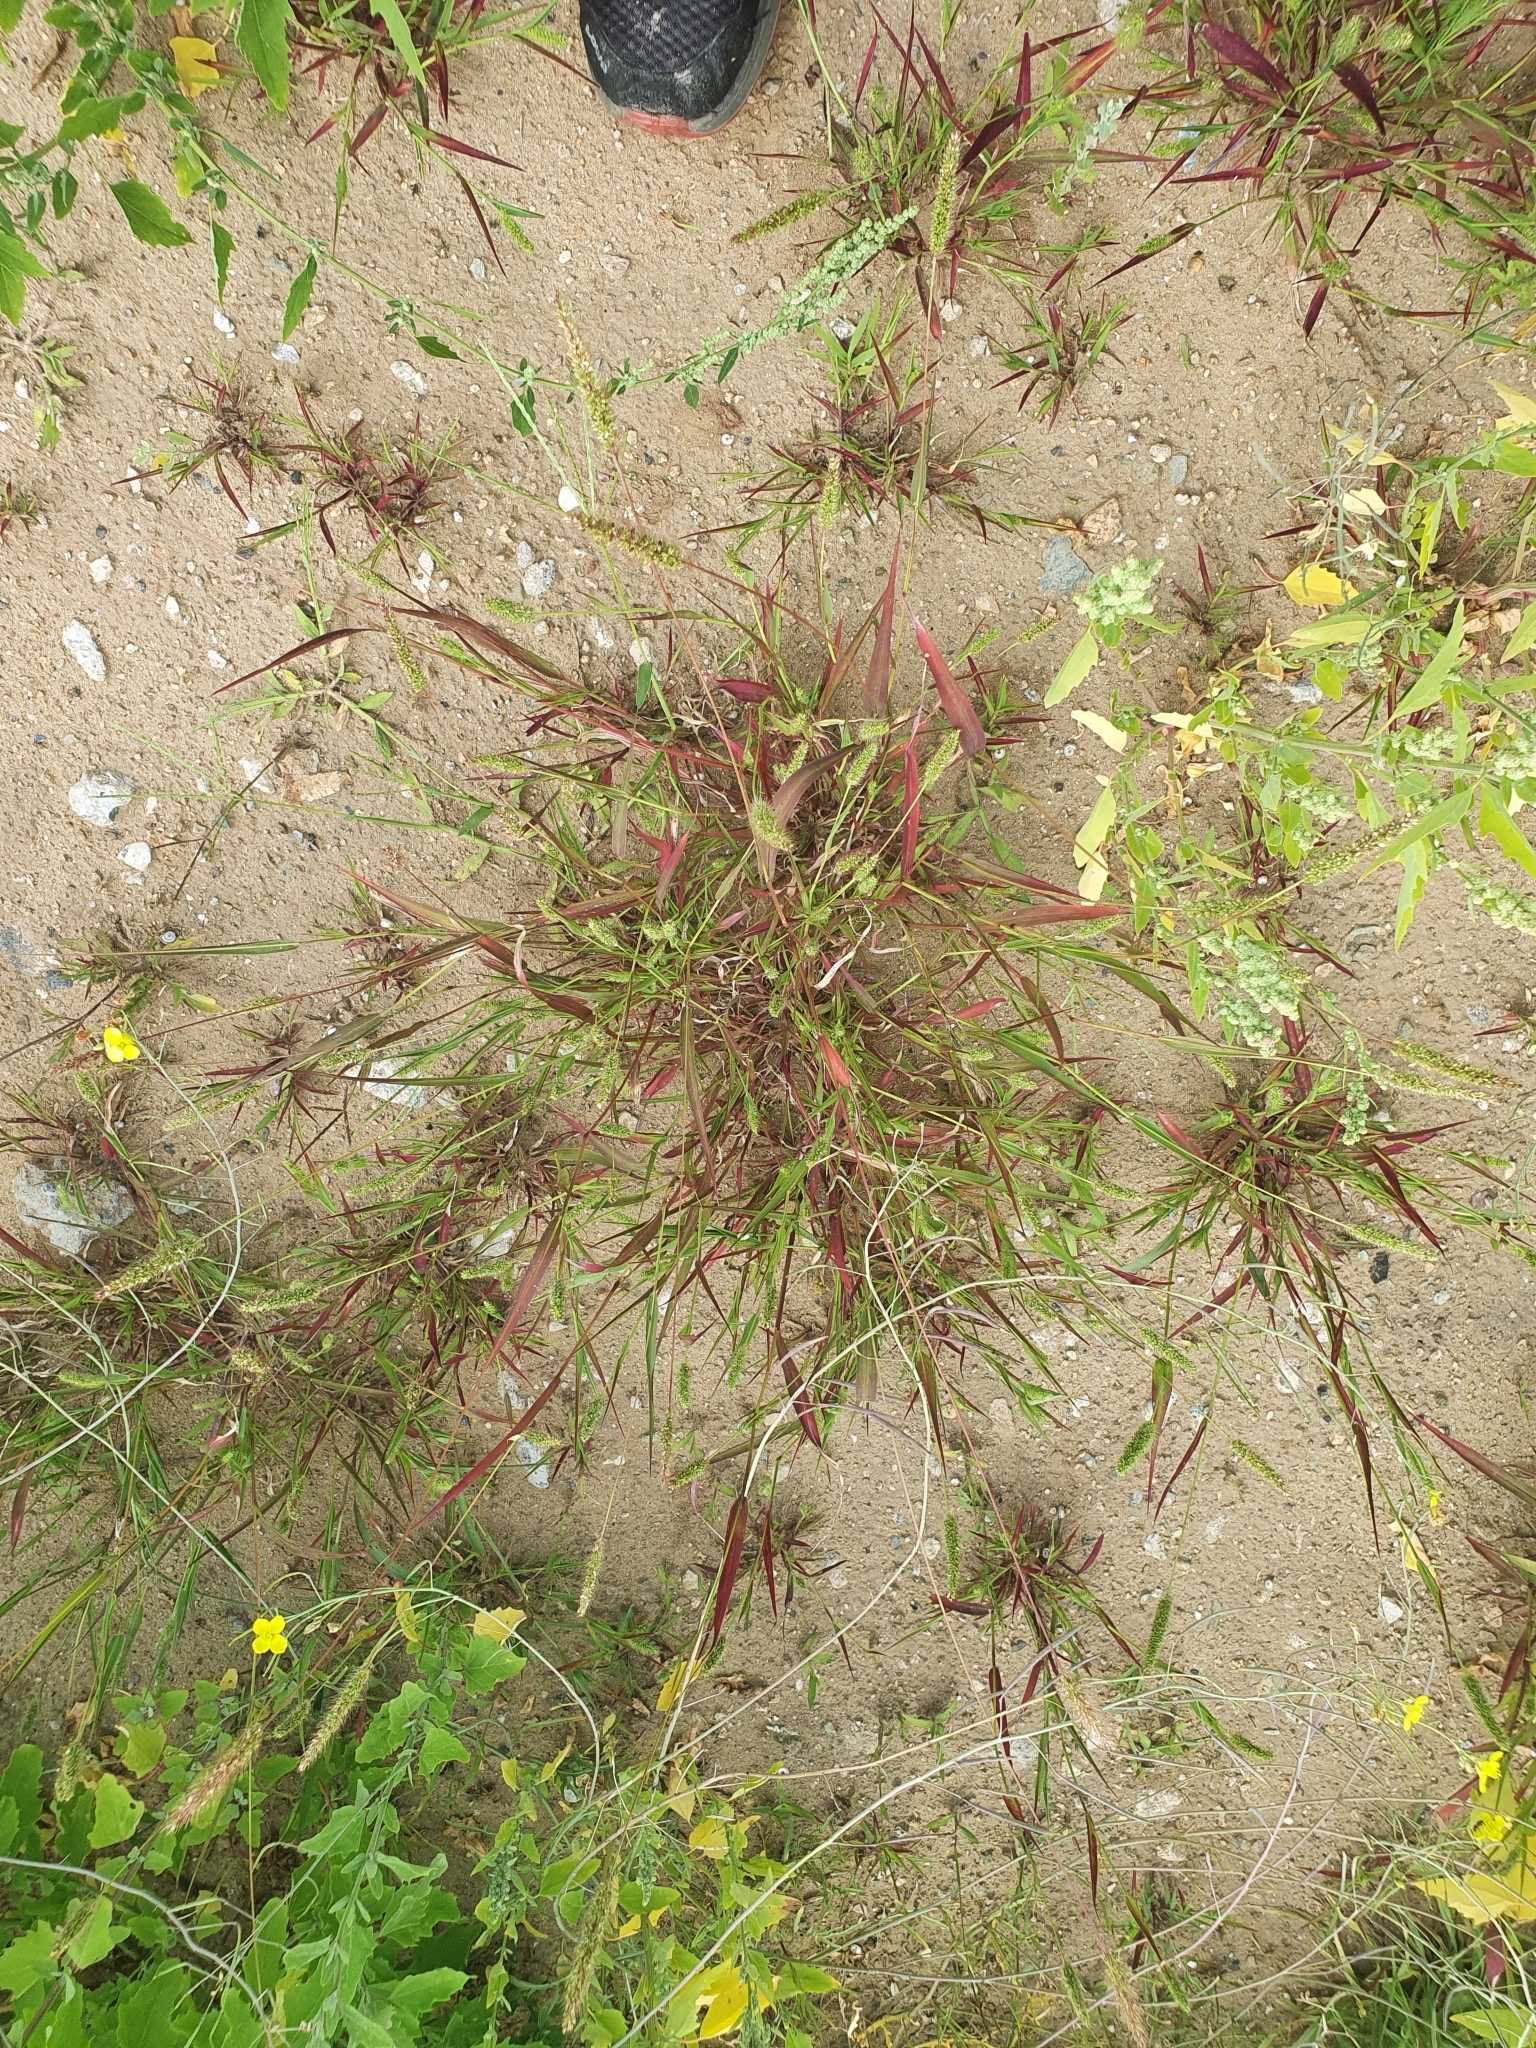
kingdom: Plantae
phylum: Tracheophyta
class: Liliopsida
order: Poales
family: Poaceae
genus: Setaria
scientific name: Setaria viridis
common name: Green bristlegrass
